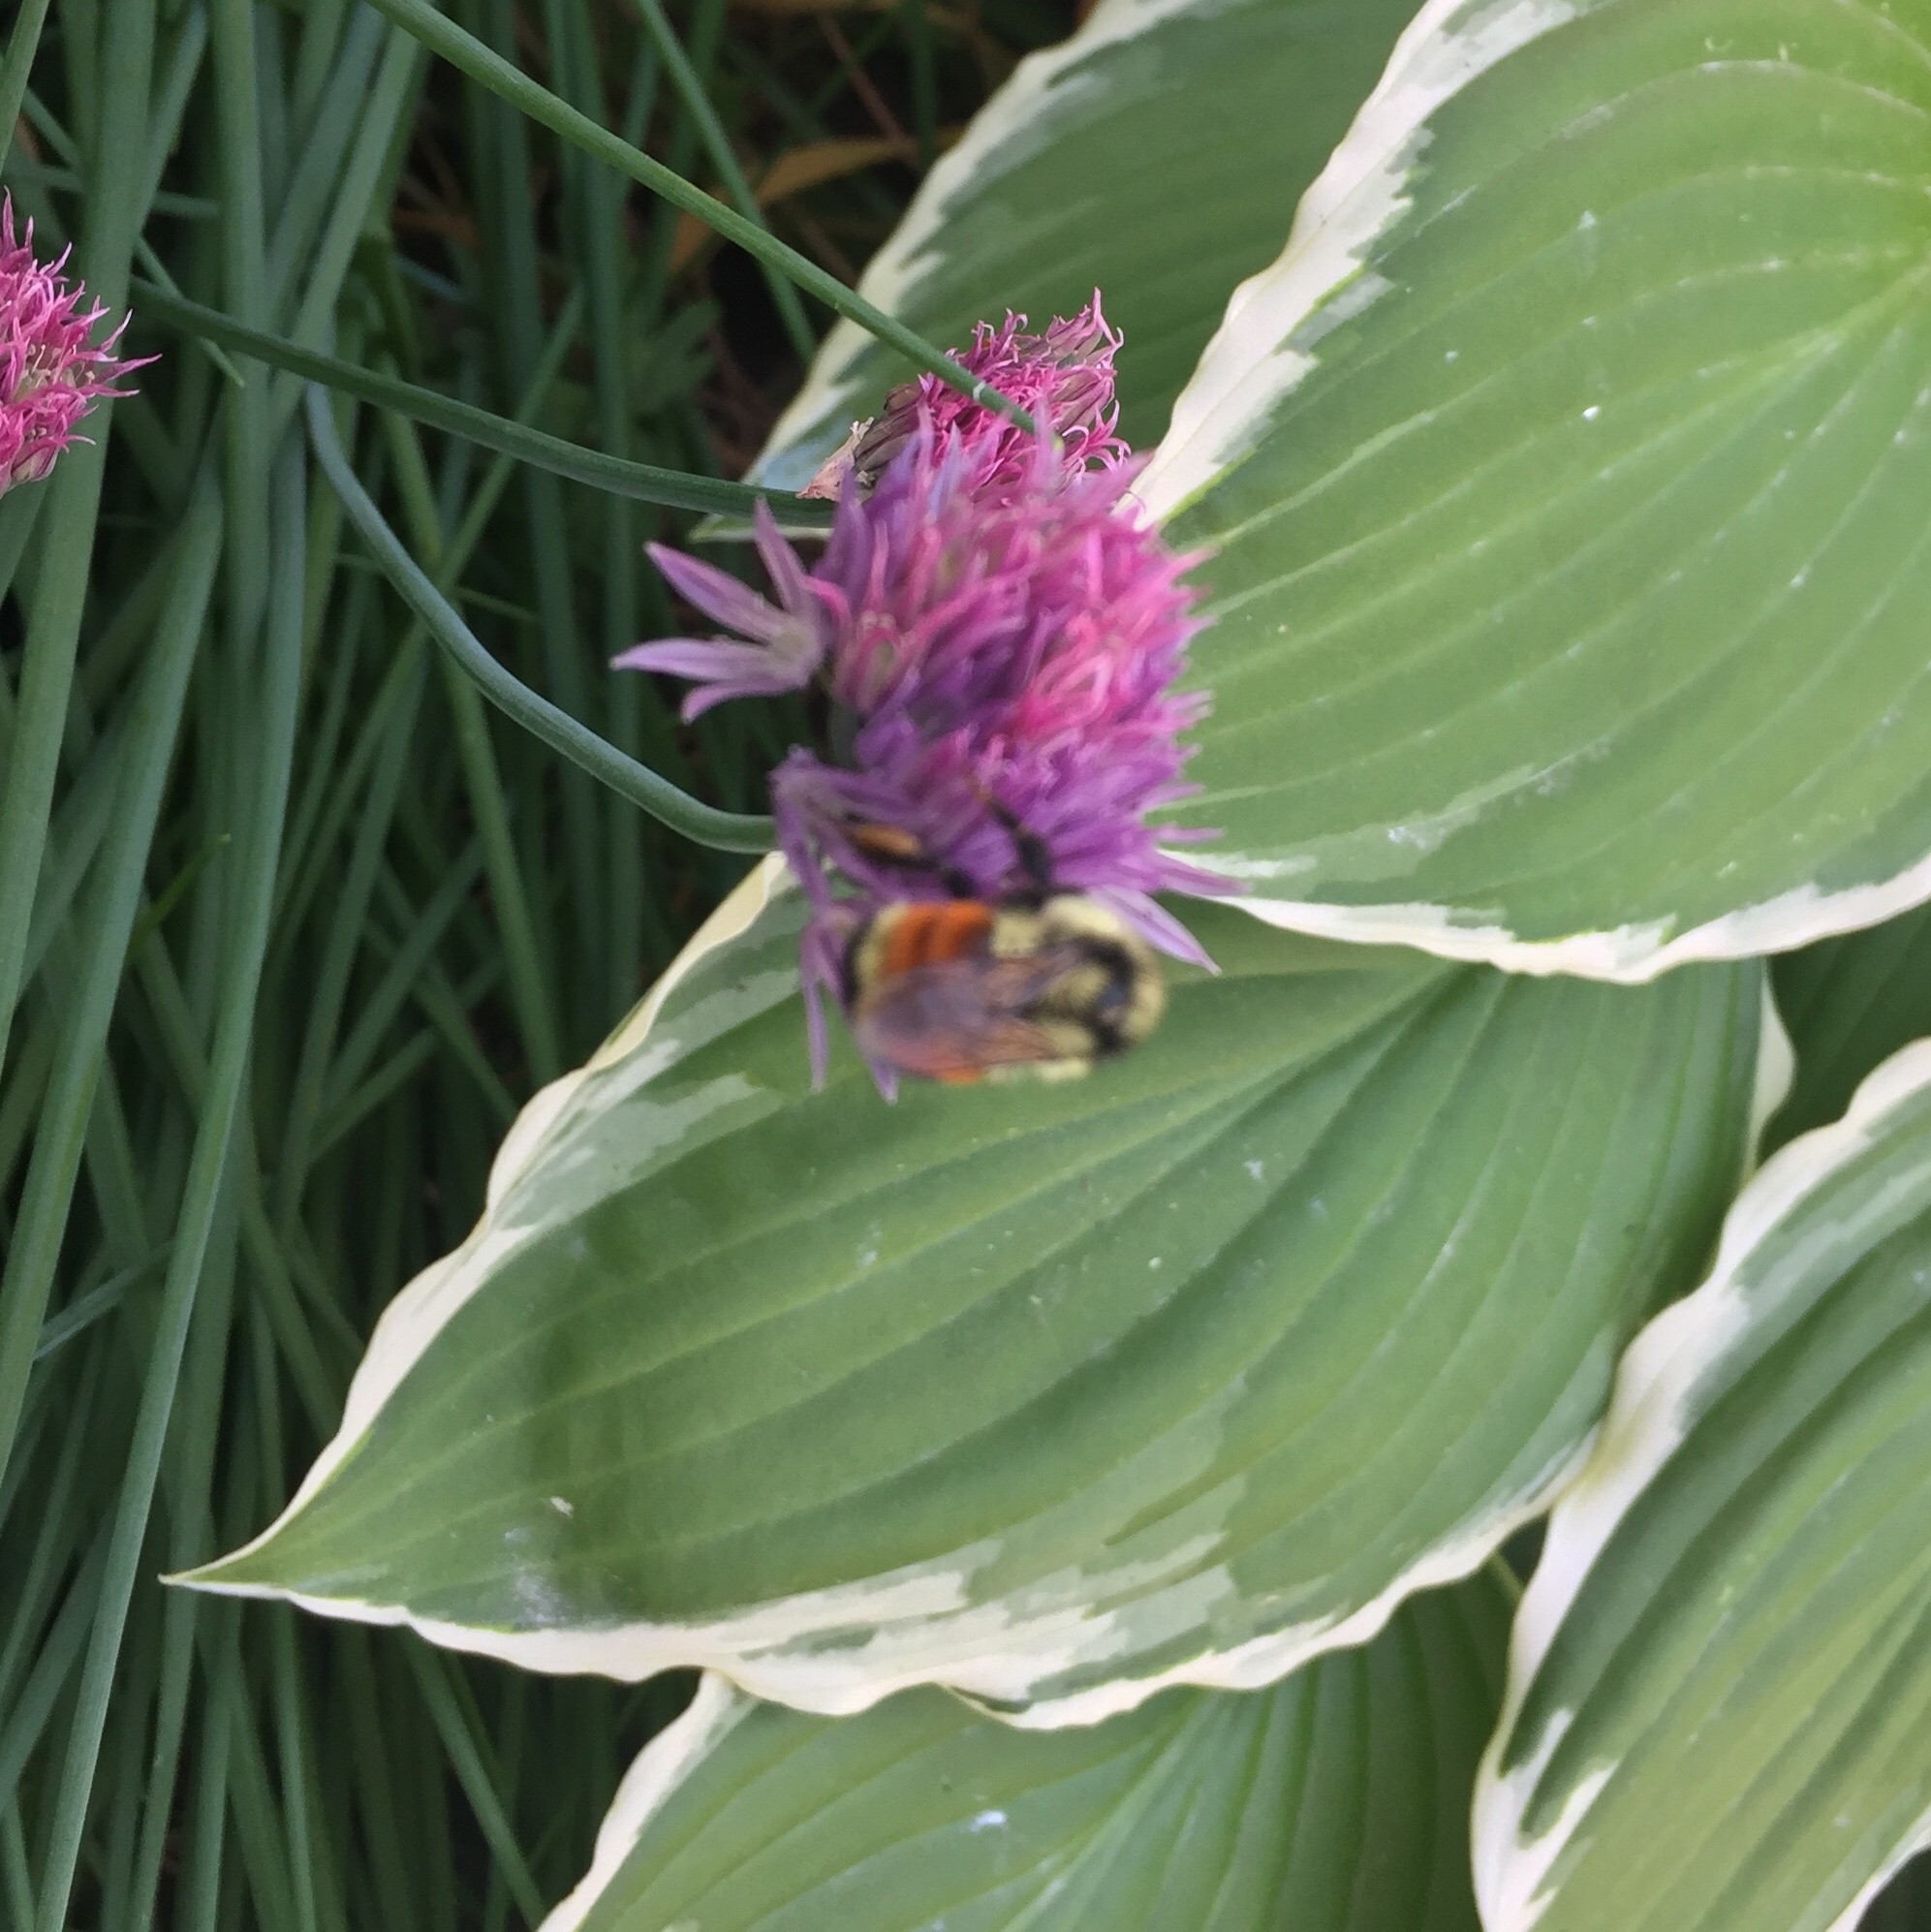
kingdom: Animalia
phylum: Arthropoda
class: Insecta
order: Hymenoptera
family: Apidae
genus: Bombus
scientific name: Bombus ternarius
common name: Tri-colored bumble bee
